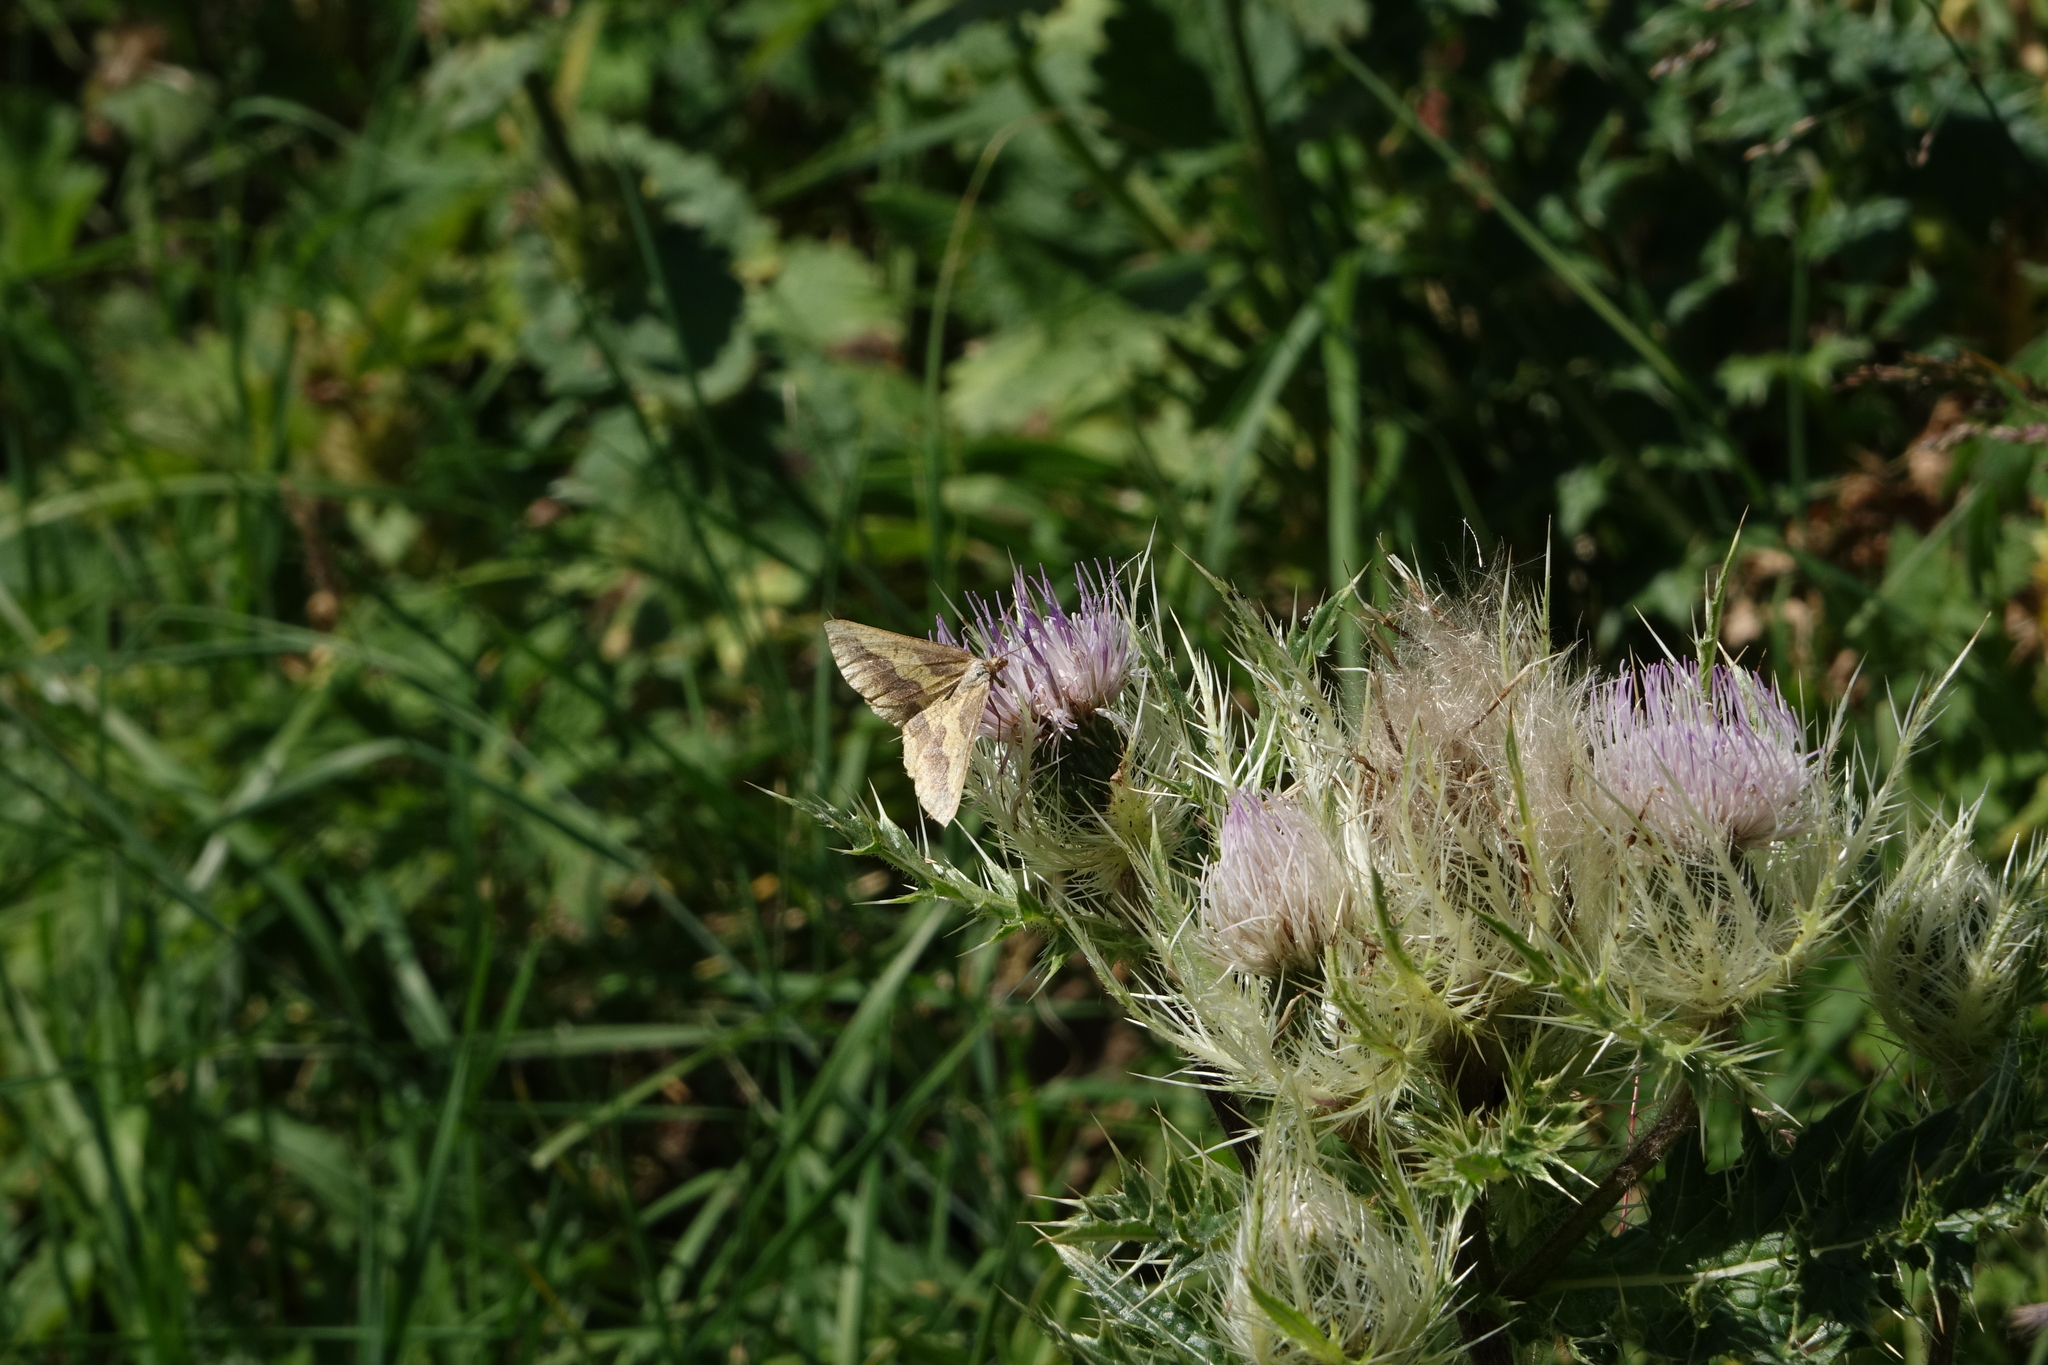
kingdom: Plantae
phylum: Tracheophyta
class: Magnoliopsida
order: Asterales
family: Asteraceae
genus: Cirsium
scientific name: Cirsium obvallatum
